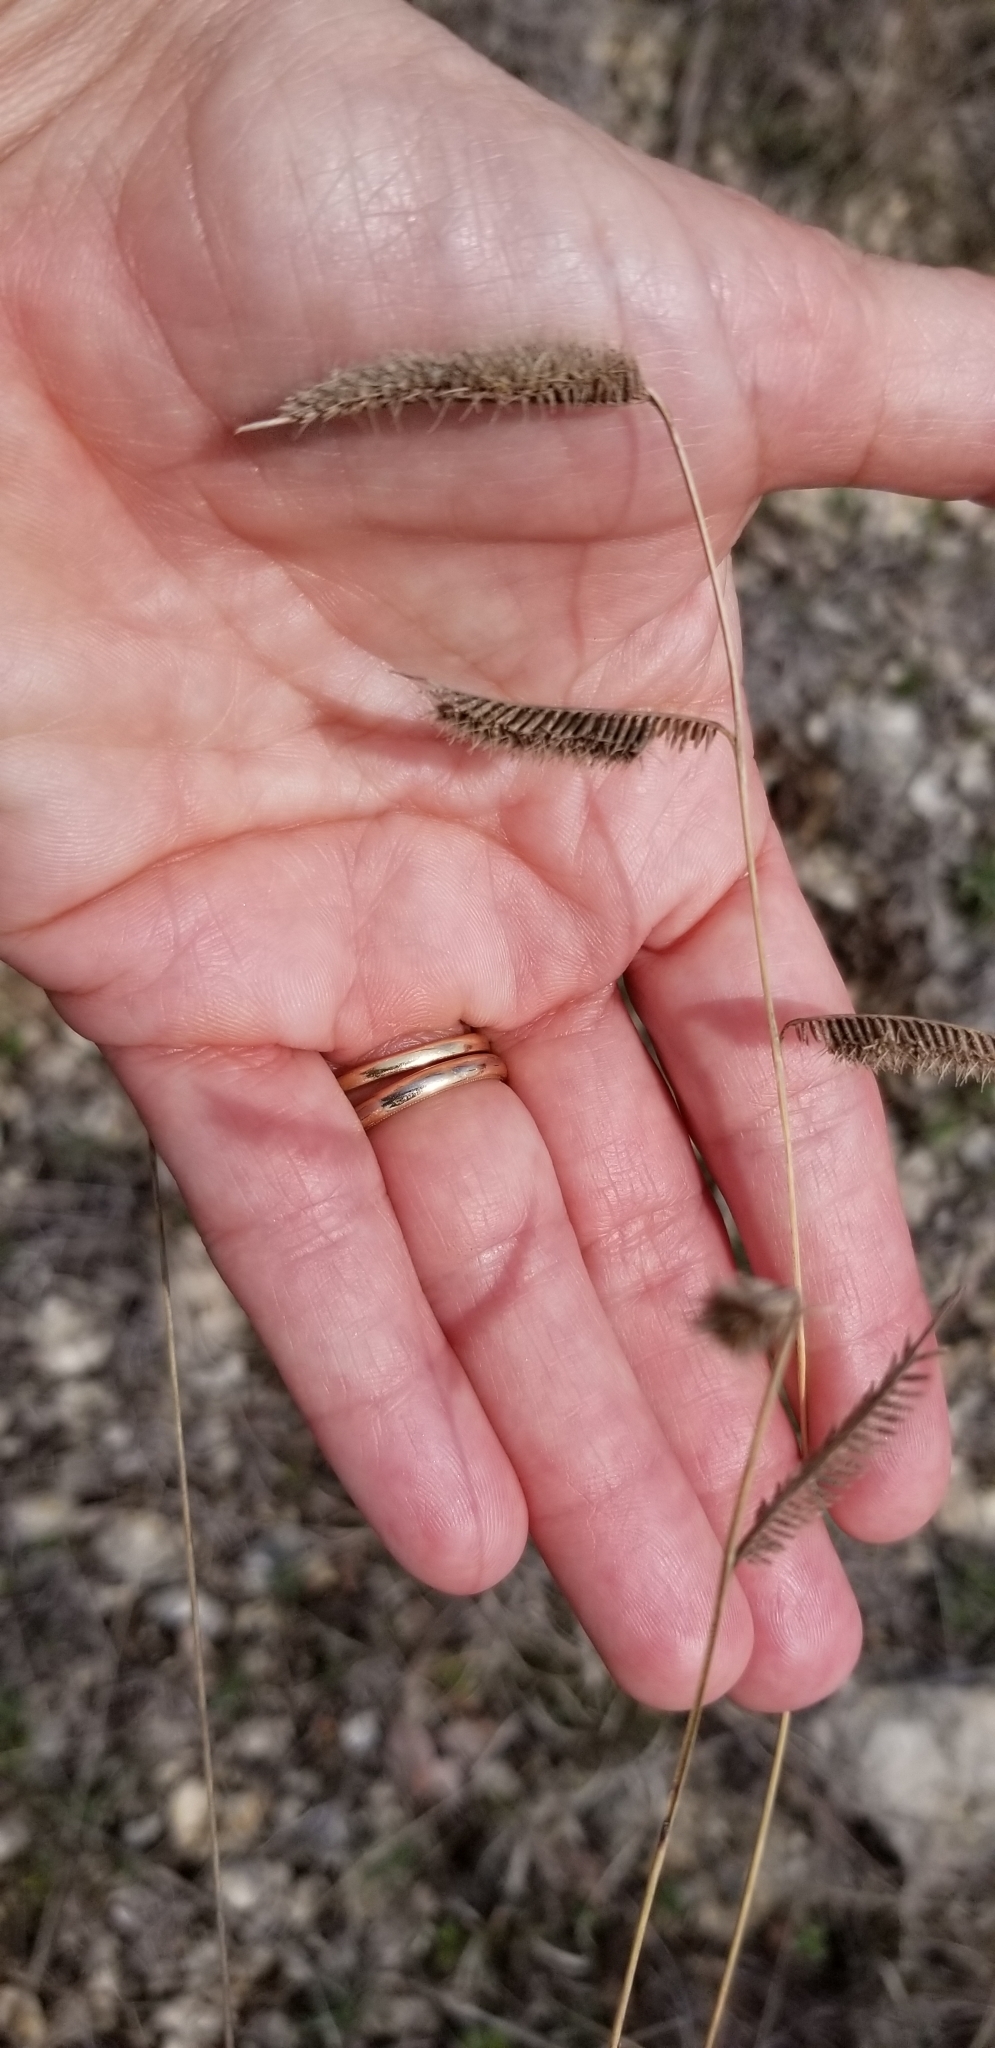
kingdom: Plantae
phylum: Tracheophyta
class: Liliopsida
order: Poales
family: Poaceae
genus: Bouteloua
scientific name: Bouteloua pectinata
